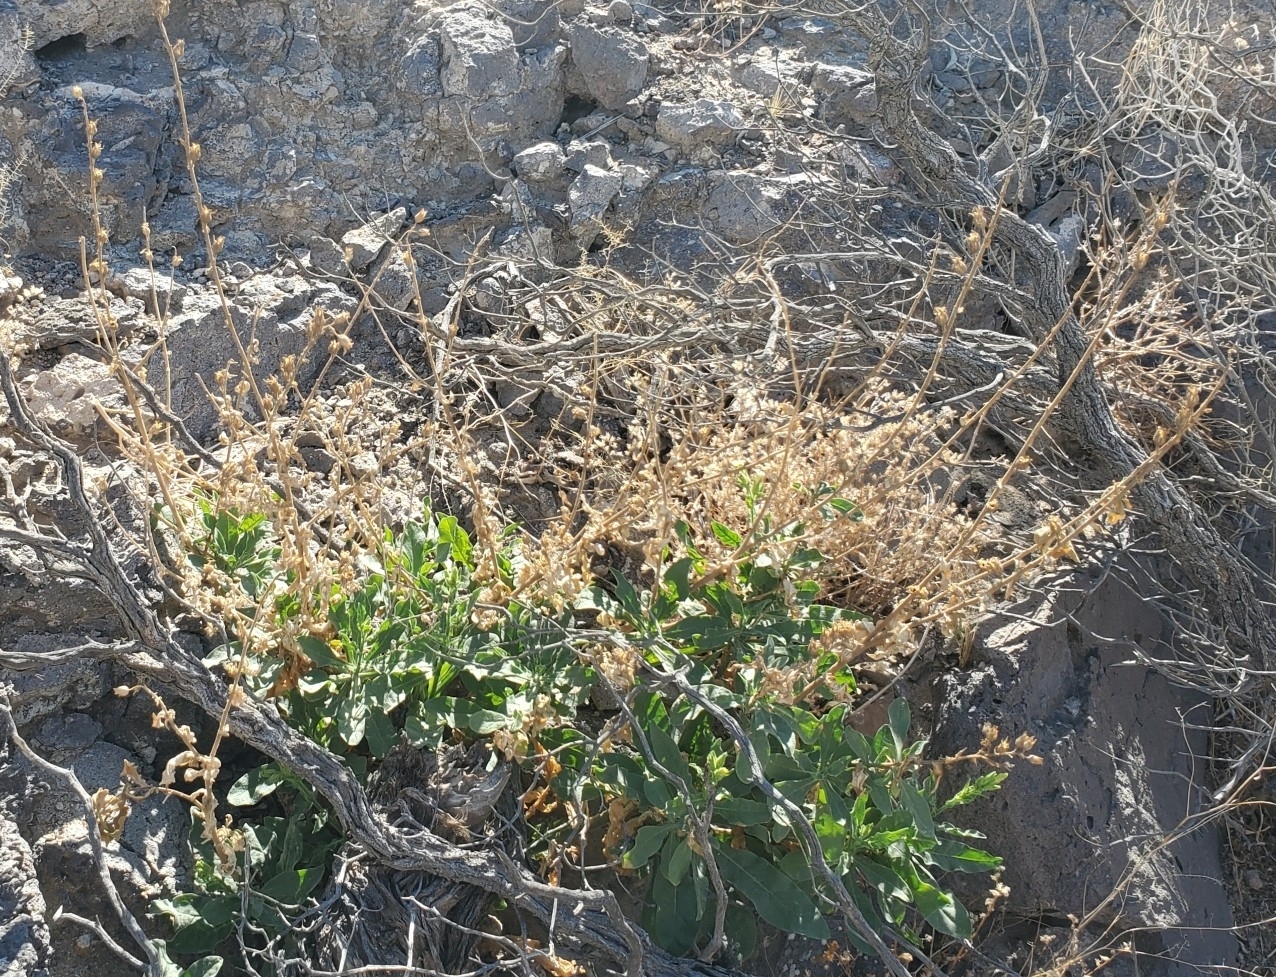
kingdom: Plantae
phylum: Tracheophyta
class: Magnoliopsida
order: Solanales
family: Solanaceae
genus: Nicotiana
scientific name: Nicotiana obtusifolia
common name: Desert tobacco
